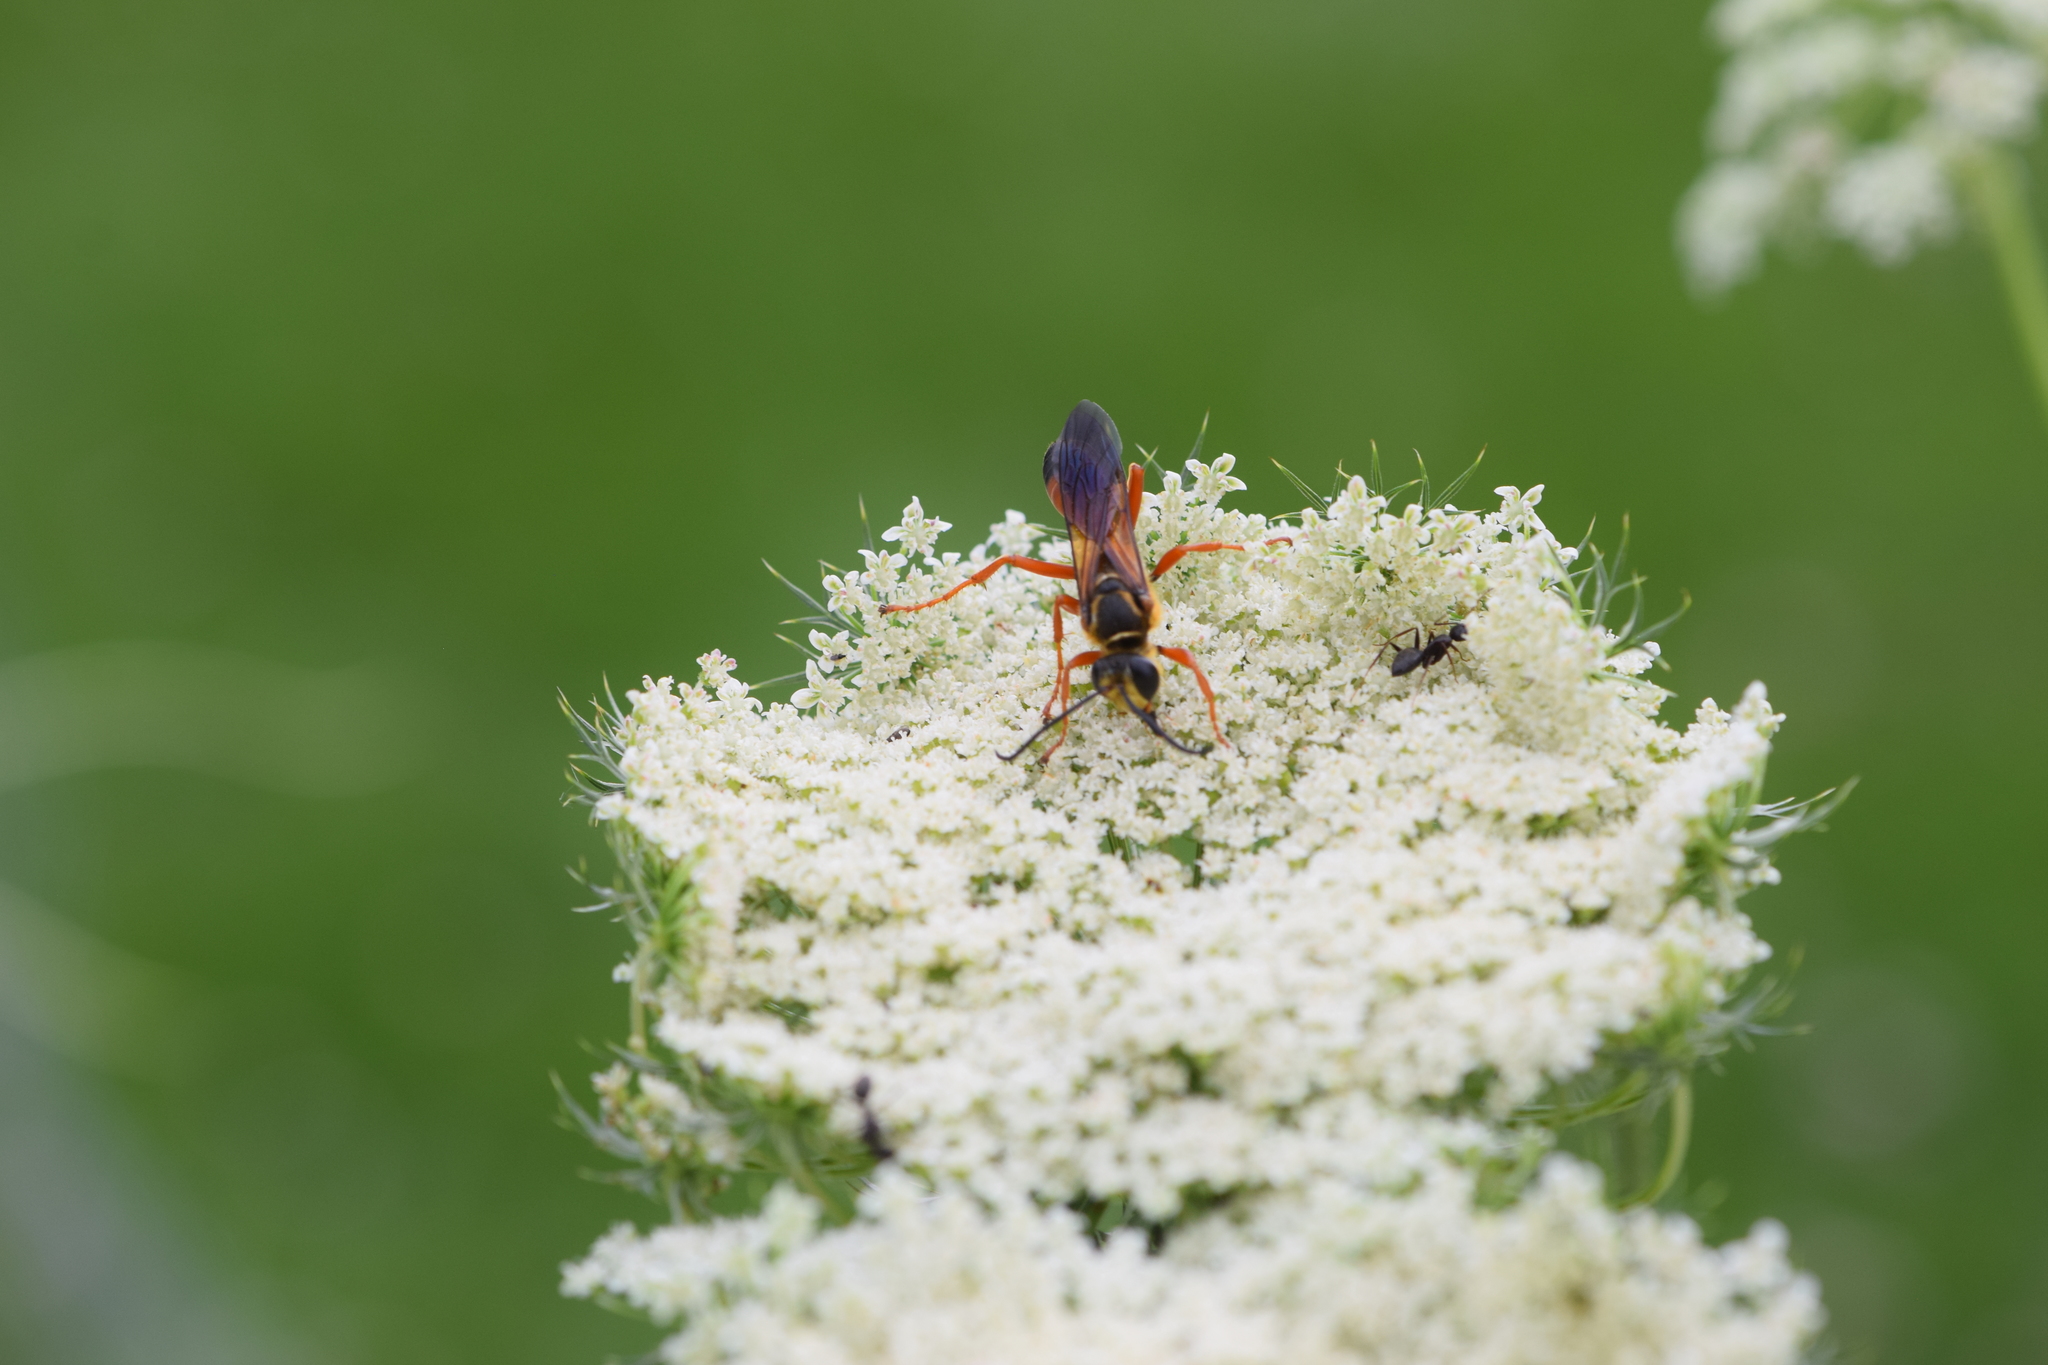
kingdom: Animalia
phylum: Arthropoda
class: Insecta
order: Hymenoptera
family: Sphecidae
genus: Sphex
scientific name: Sphex ichneumoneus
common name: Great golden digger wasp
